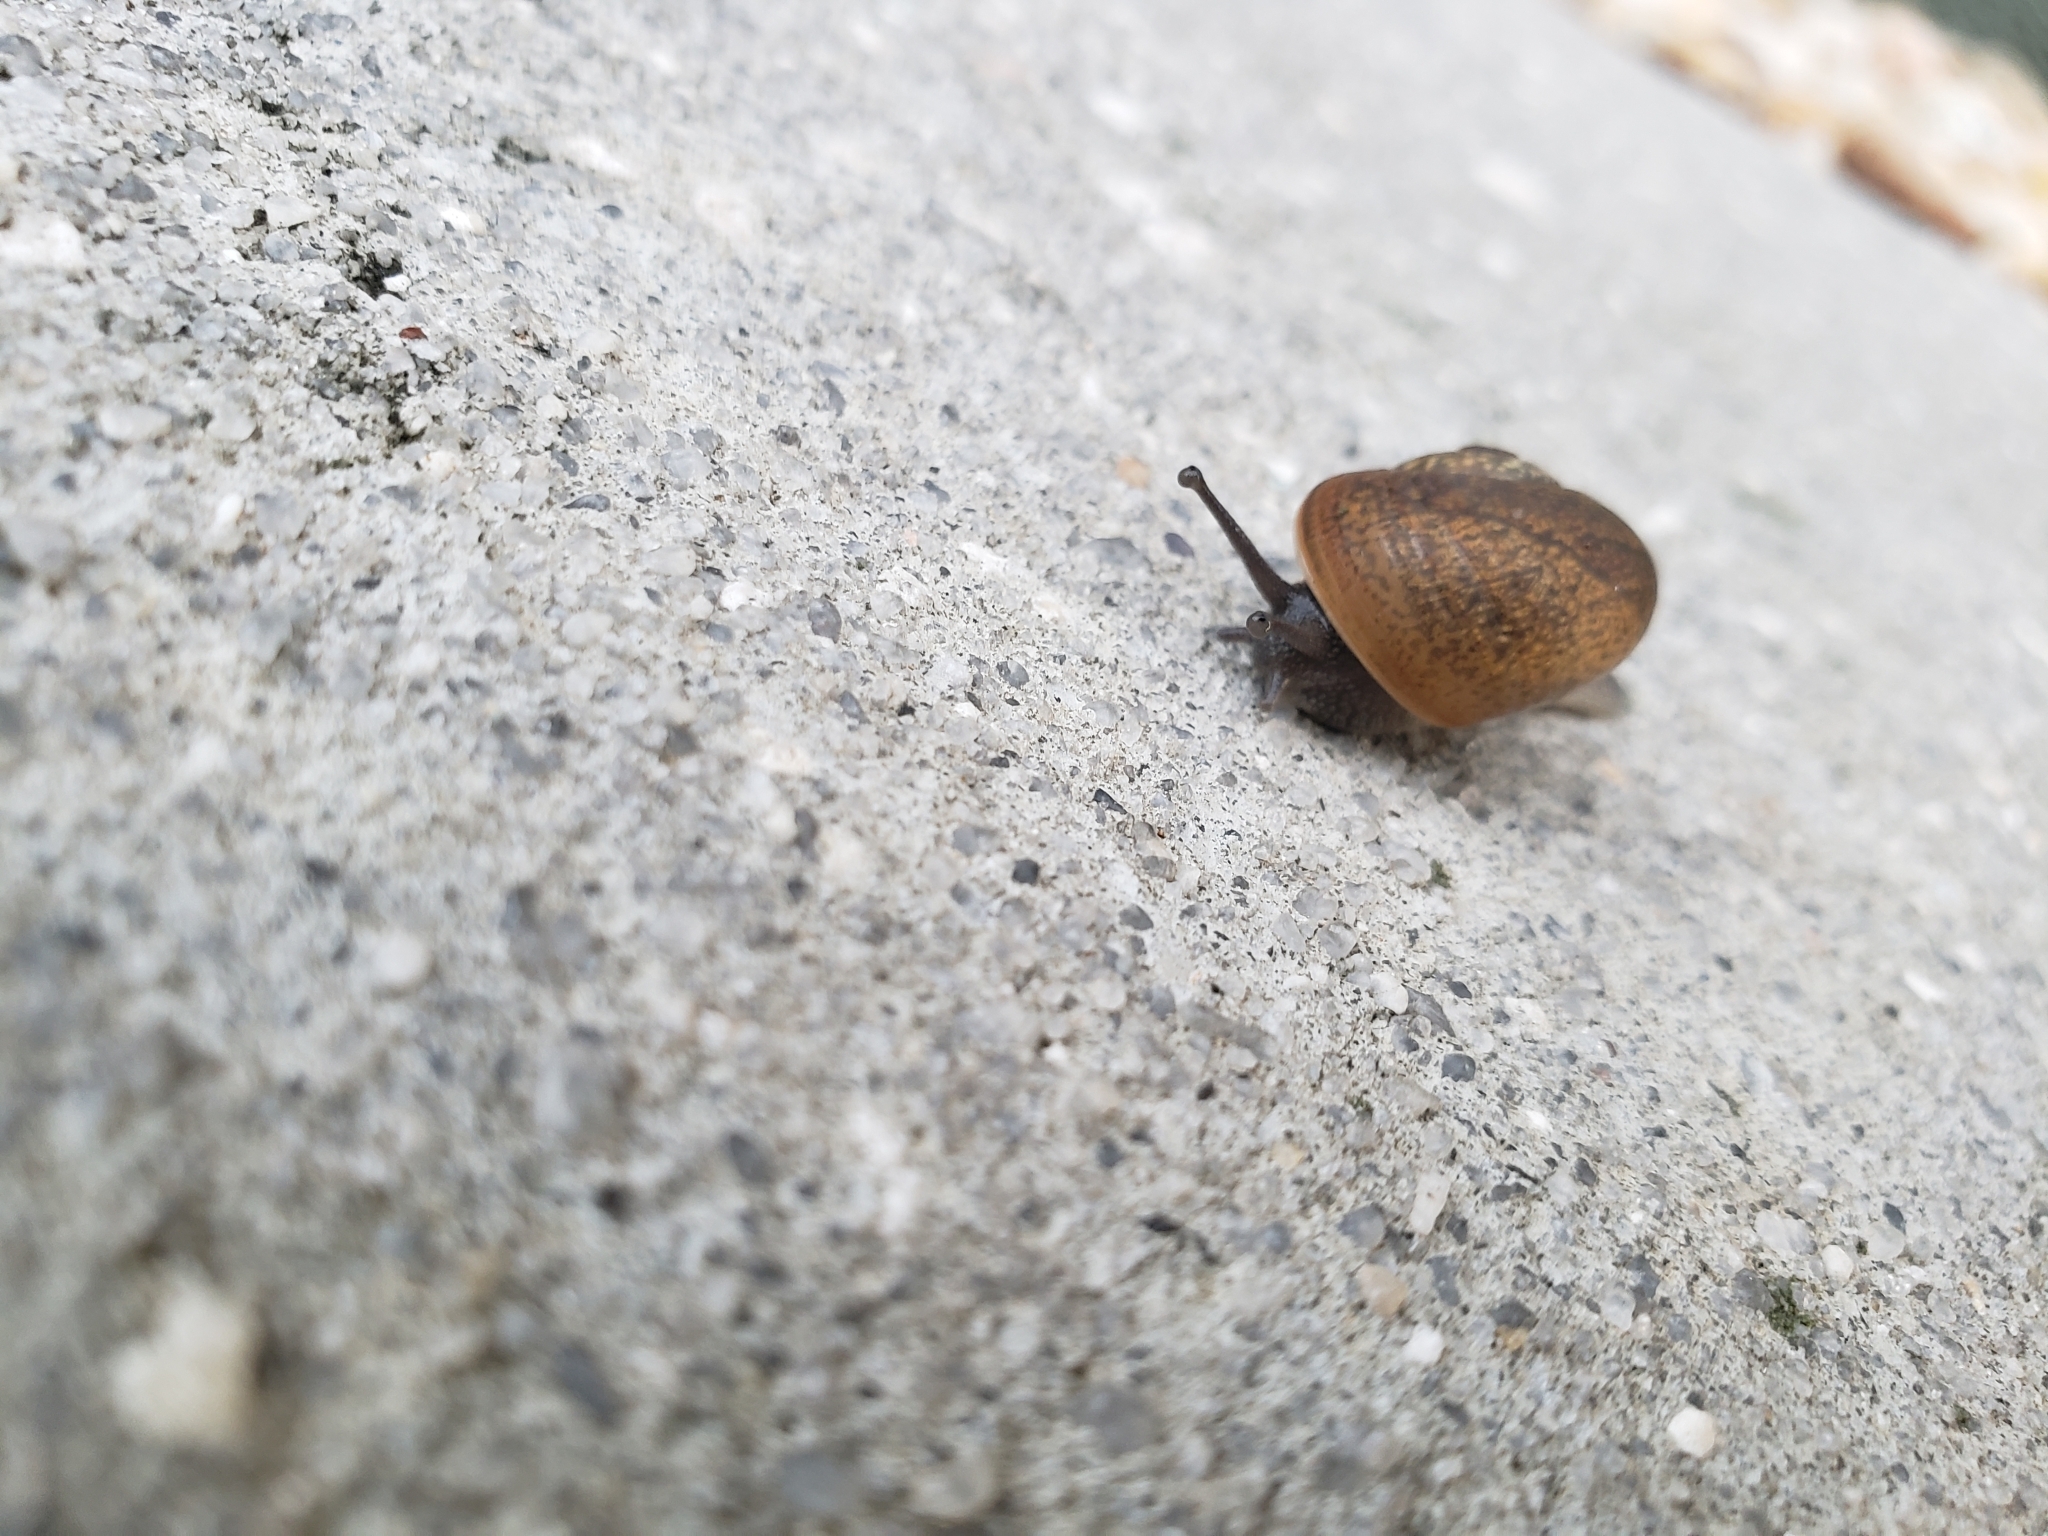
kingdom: Animalia
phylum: Mollusca
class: Gastropoda
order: Stylommatophora
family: Zachrysiidae
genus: Zachrysia
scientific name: Zachrysia provisoria
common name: Garden zachrysia
